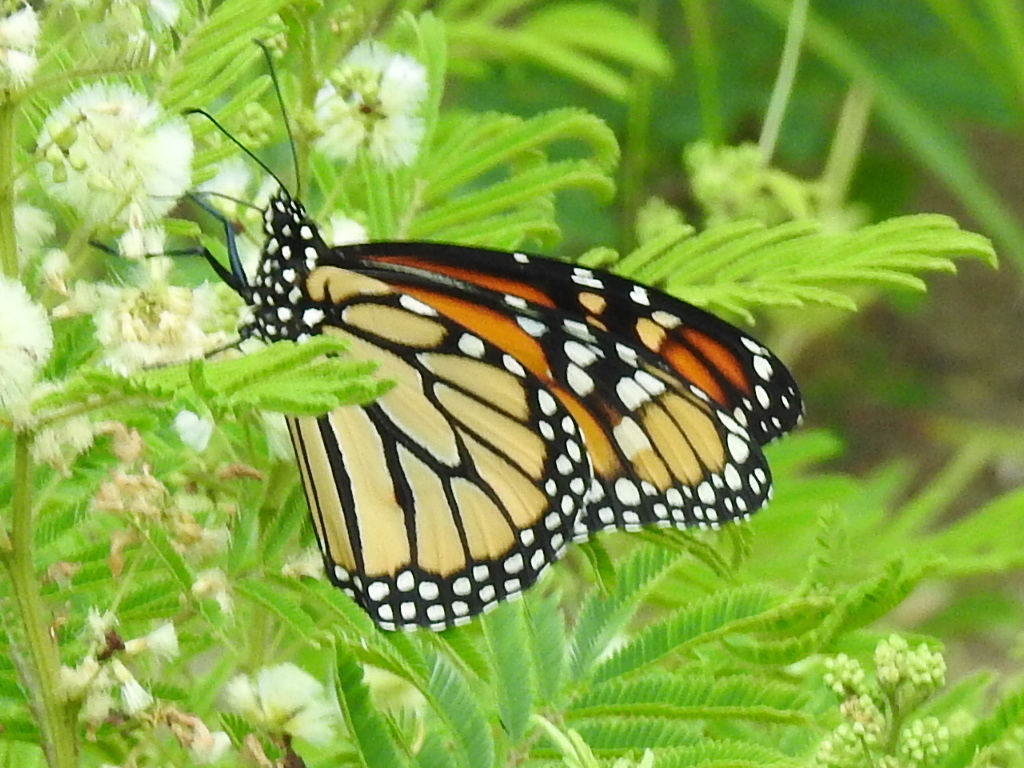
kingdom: Animalia
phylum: Arthropoda
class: Insecta
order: Lepidoptera
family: Nymphalidae
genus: Danaus
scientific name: Danaus plexippus
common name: Monarch
